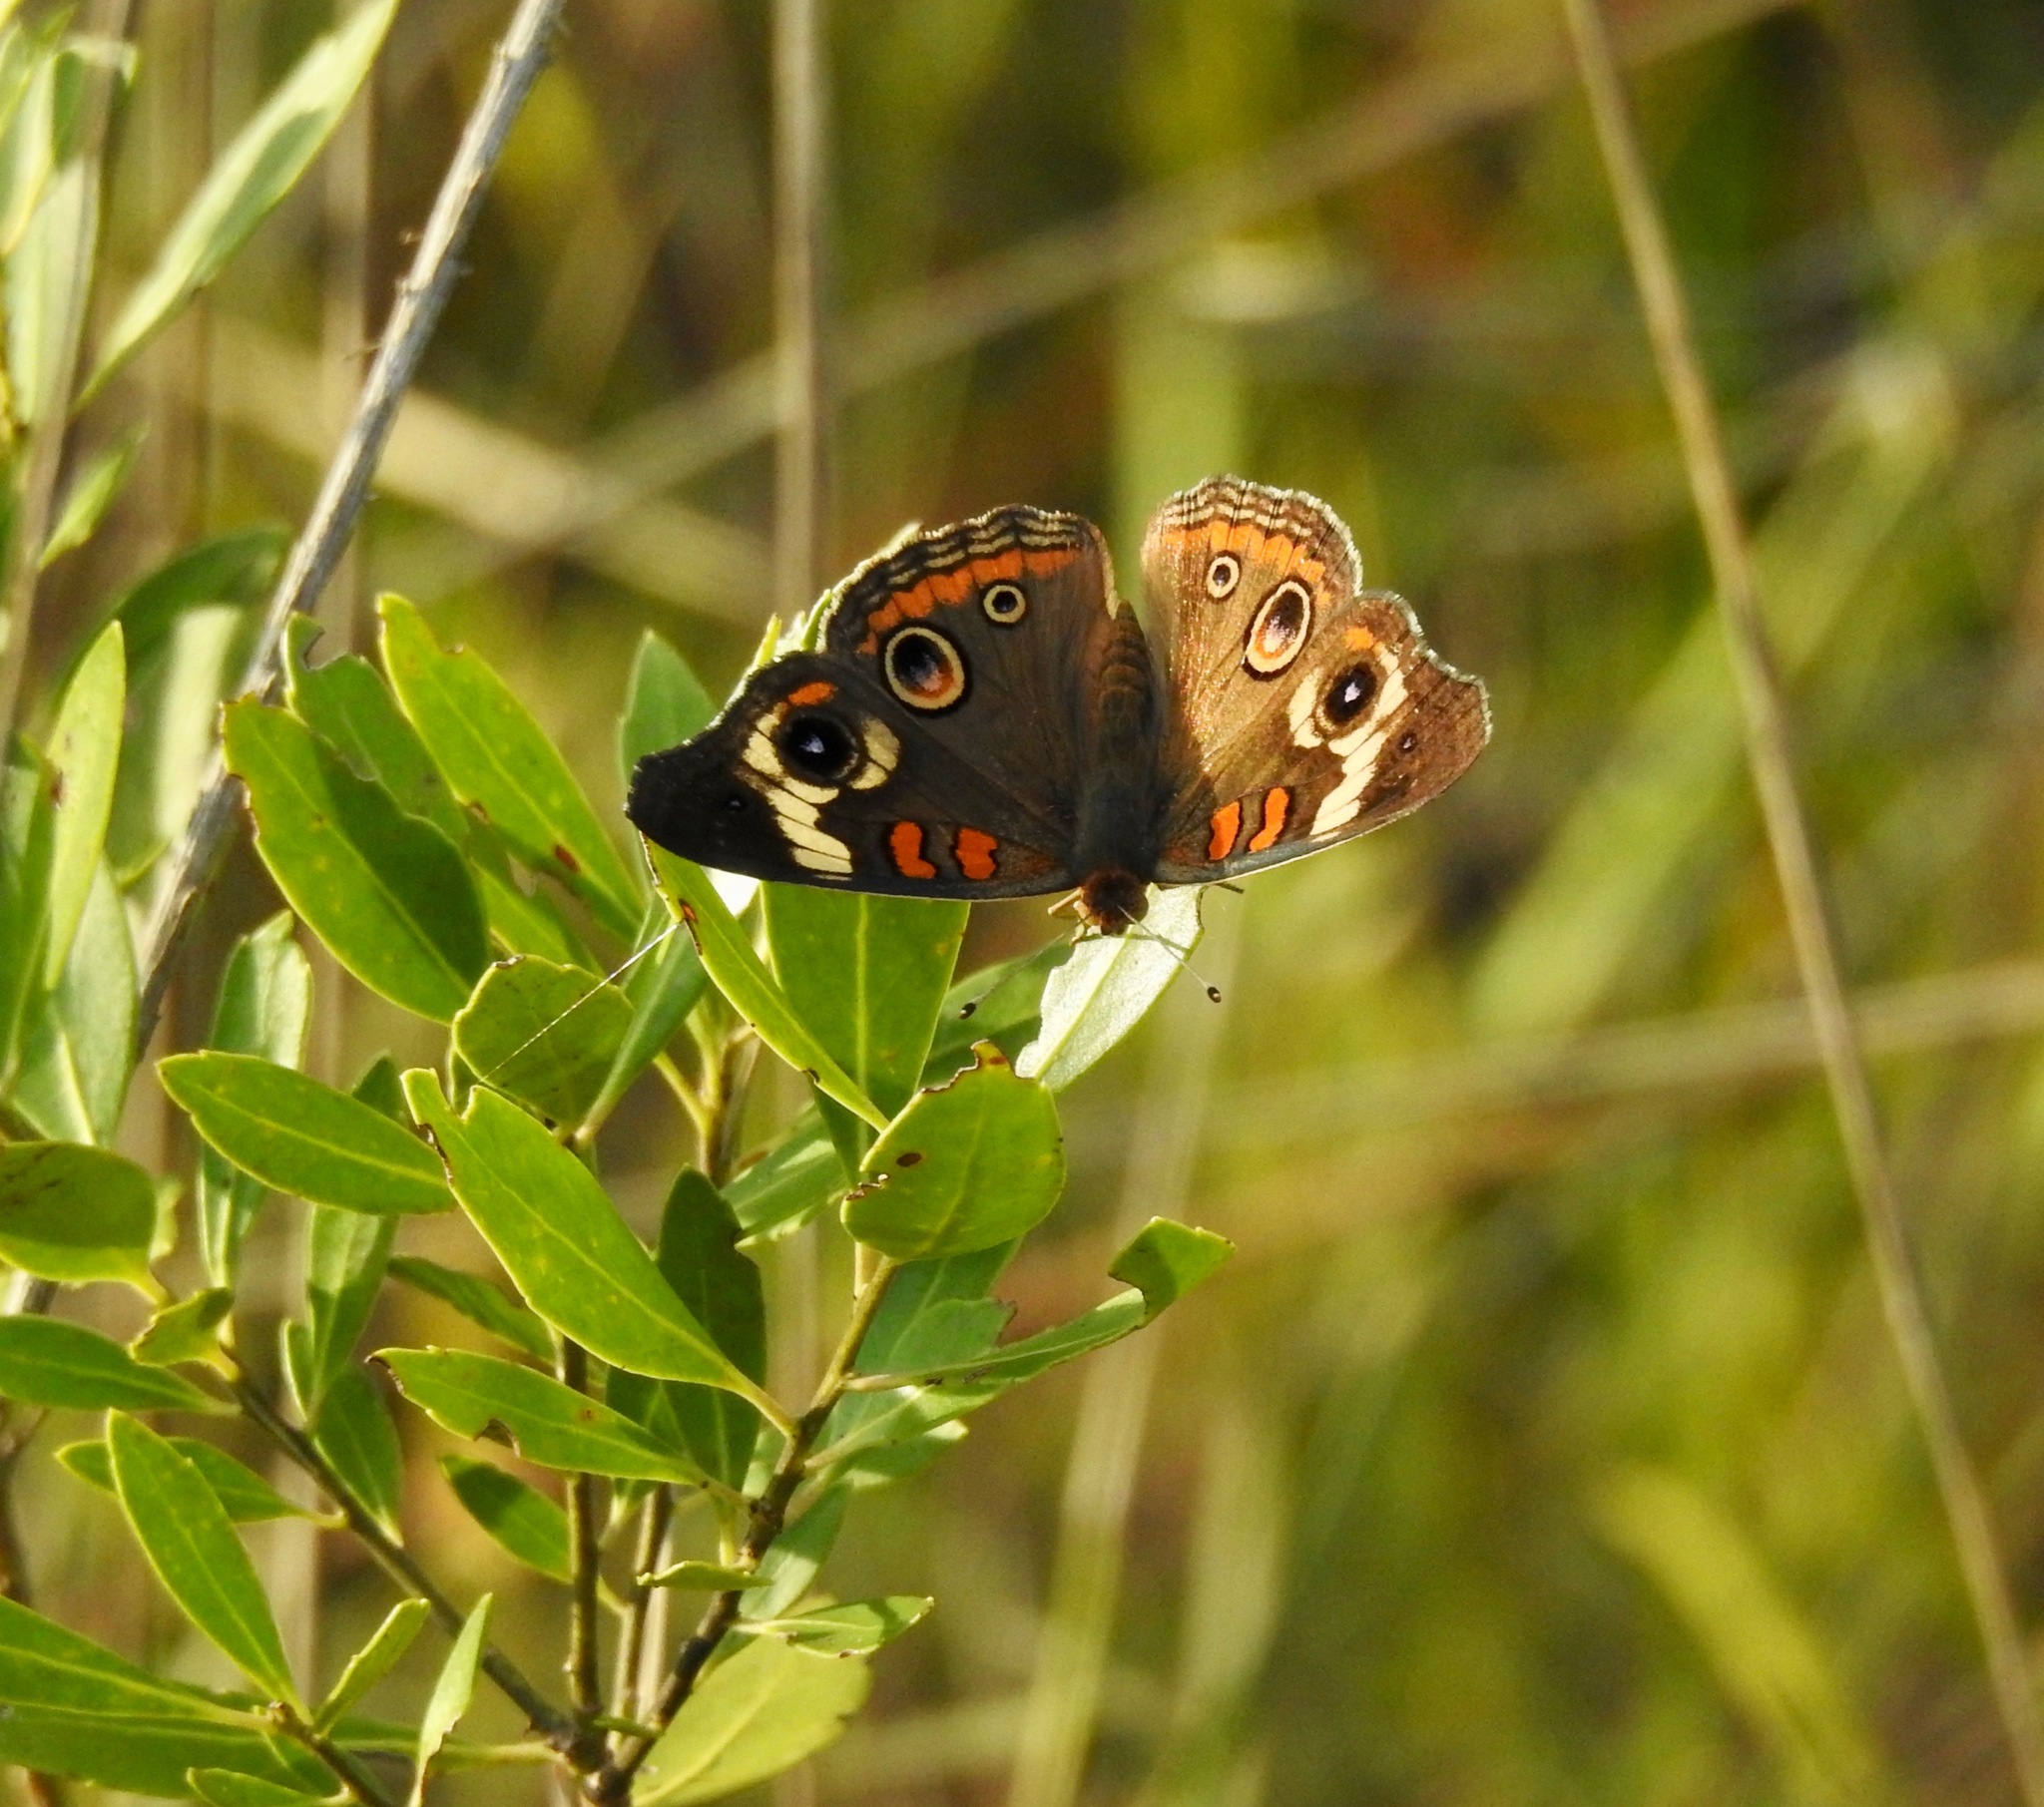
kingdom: Animalia
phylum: Arthropoda
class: Insecta
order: Lepidoptera
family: Nymphalidae
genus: Junonia
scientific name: Junonia coenia
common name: Common buckeye
